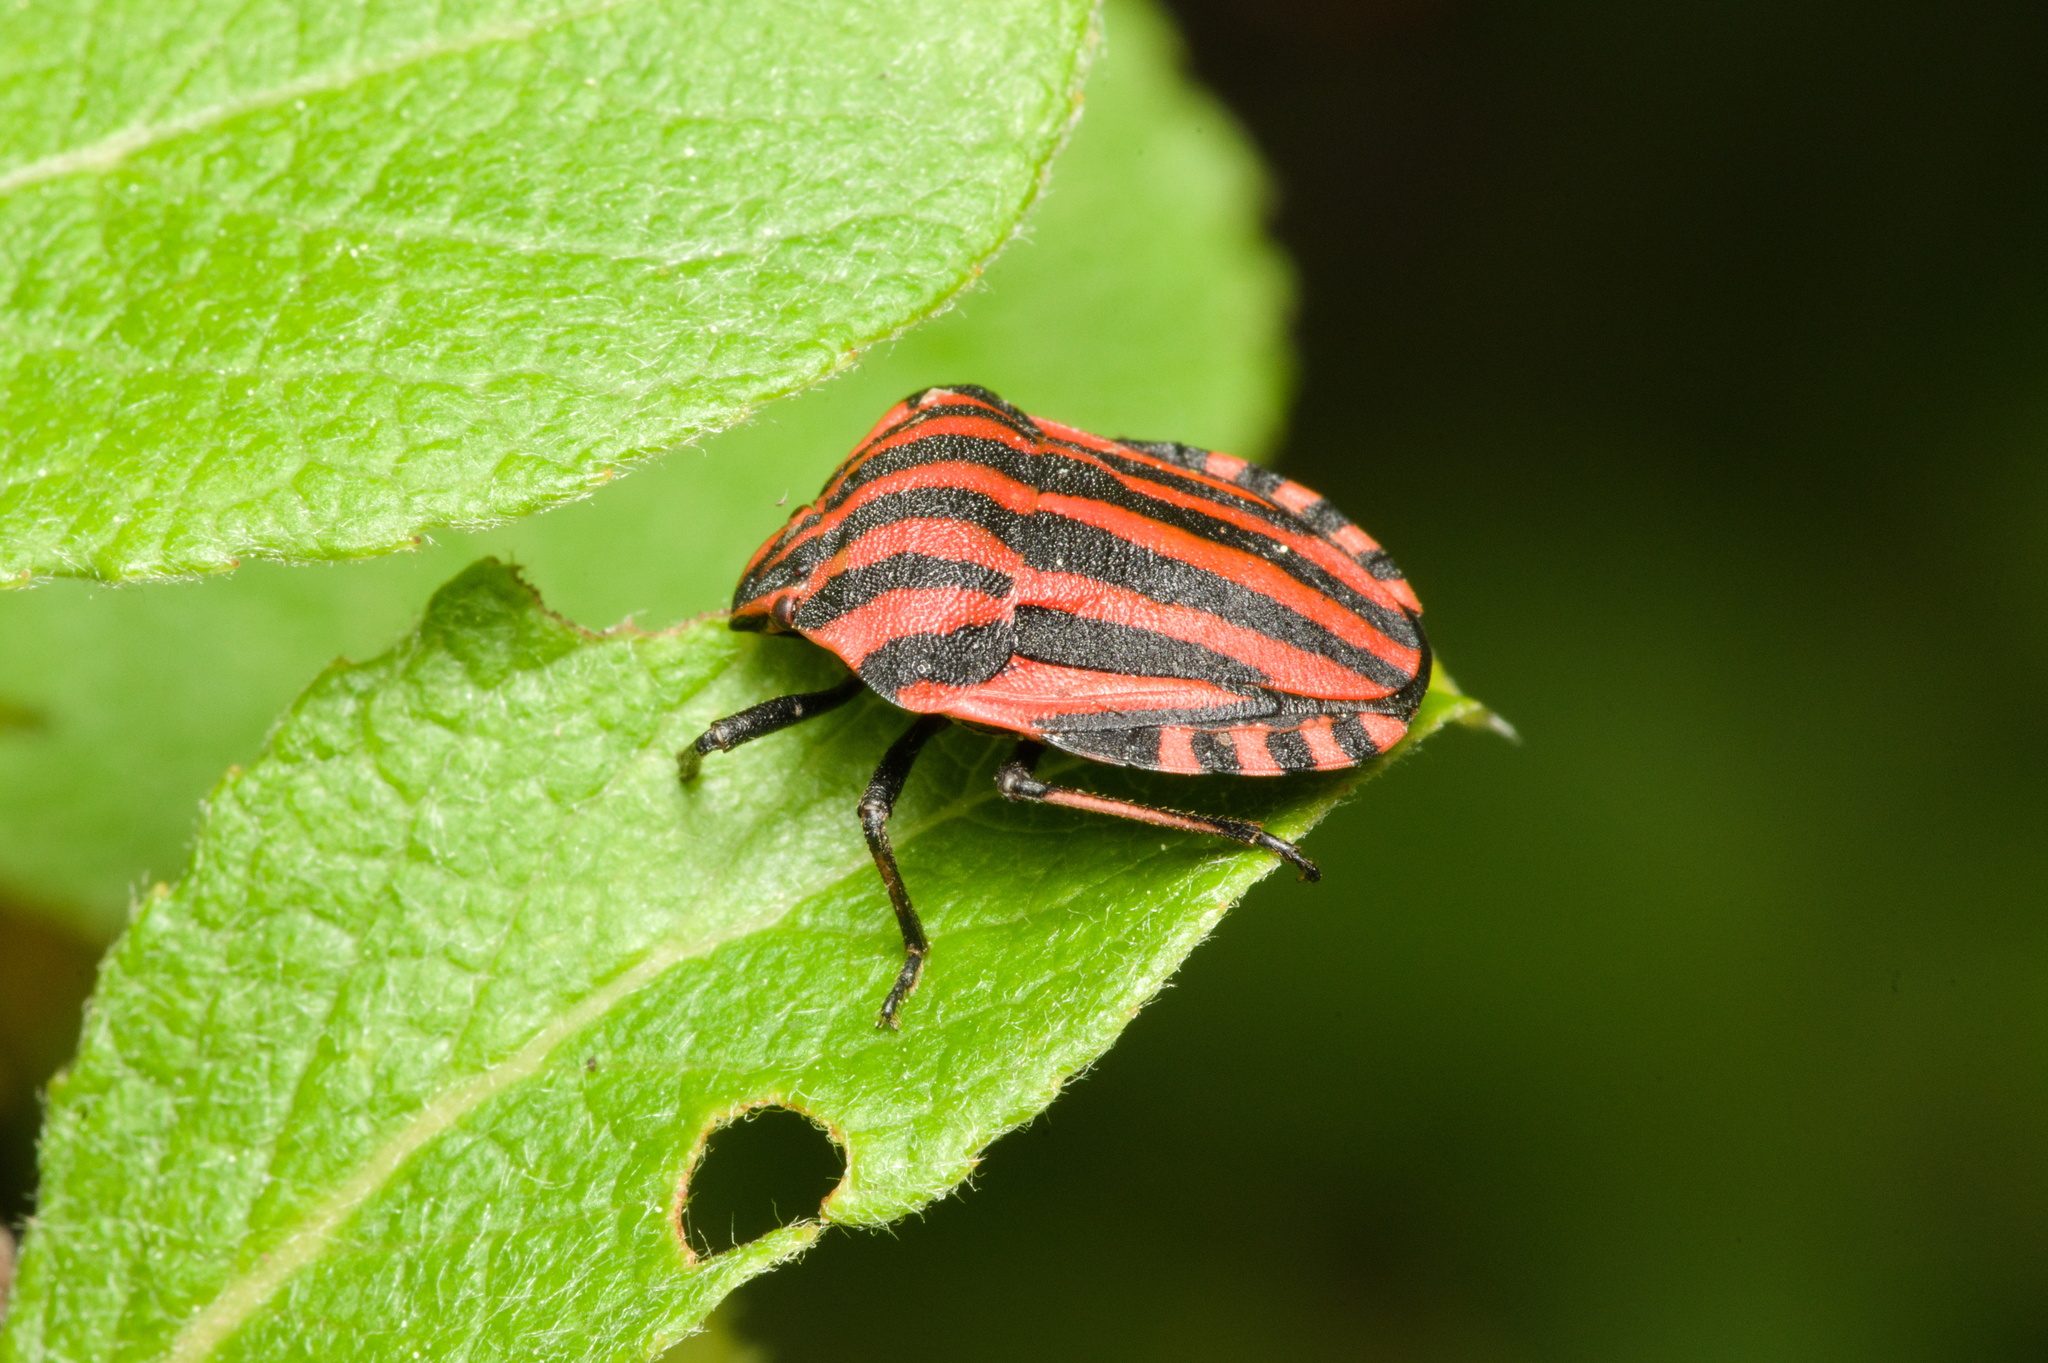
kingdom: Animalia
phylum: Arthropoda
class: Insecta
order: Hemiptera
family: Pentatomidae
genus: Graphosoma
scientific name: Graphosoma italicum
